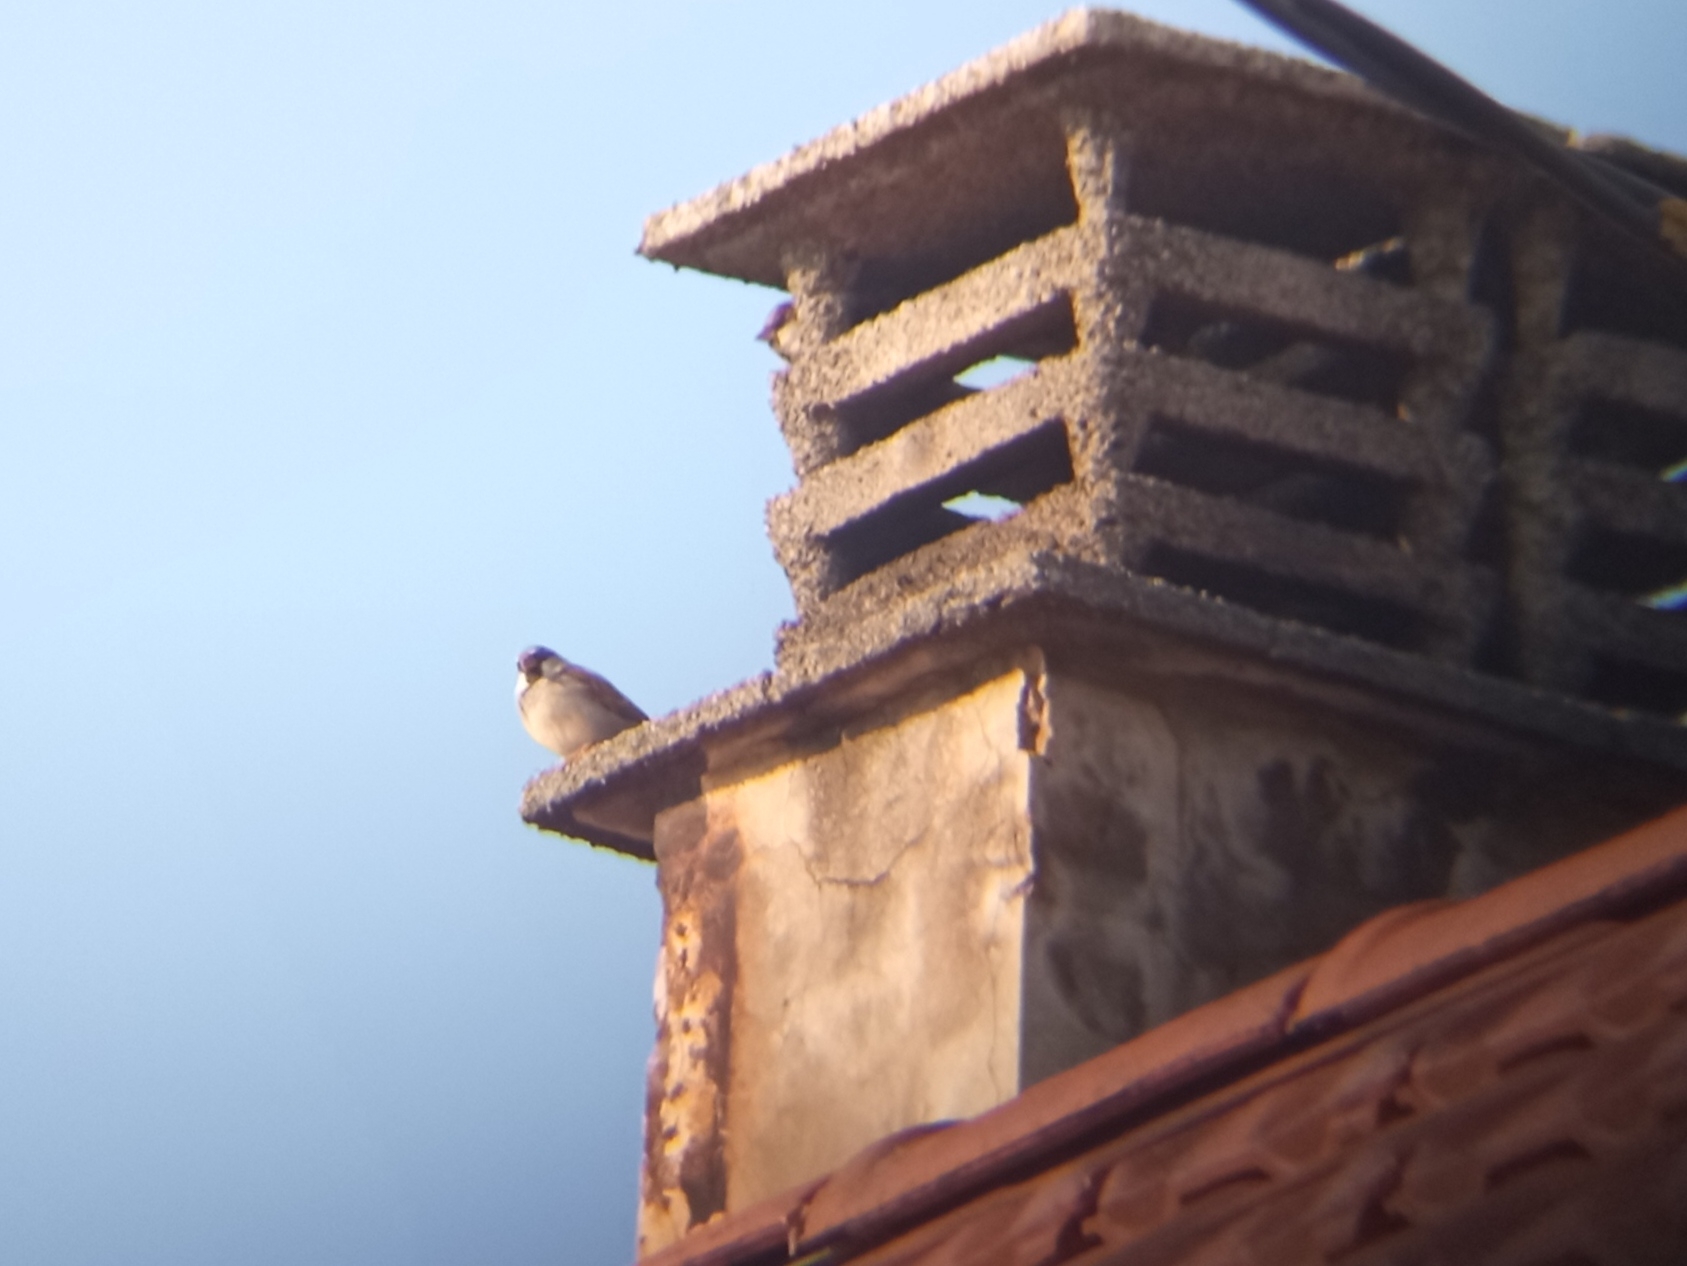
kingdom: Animalia
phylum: Chordata
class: Aves
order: Passeriformes
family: Passeridae
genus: Passer
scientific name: Passer domesticus
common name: House sparrow
